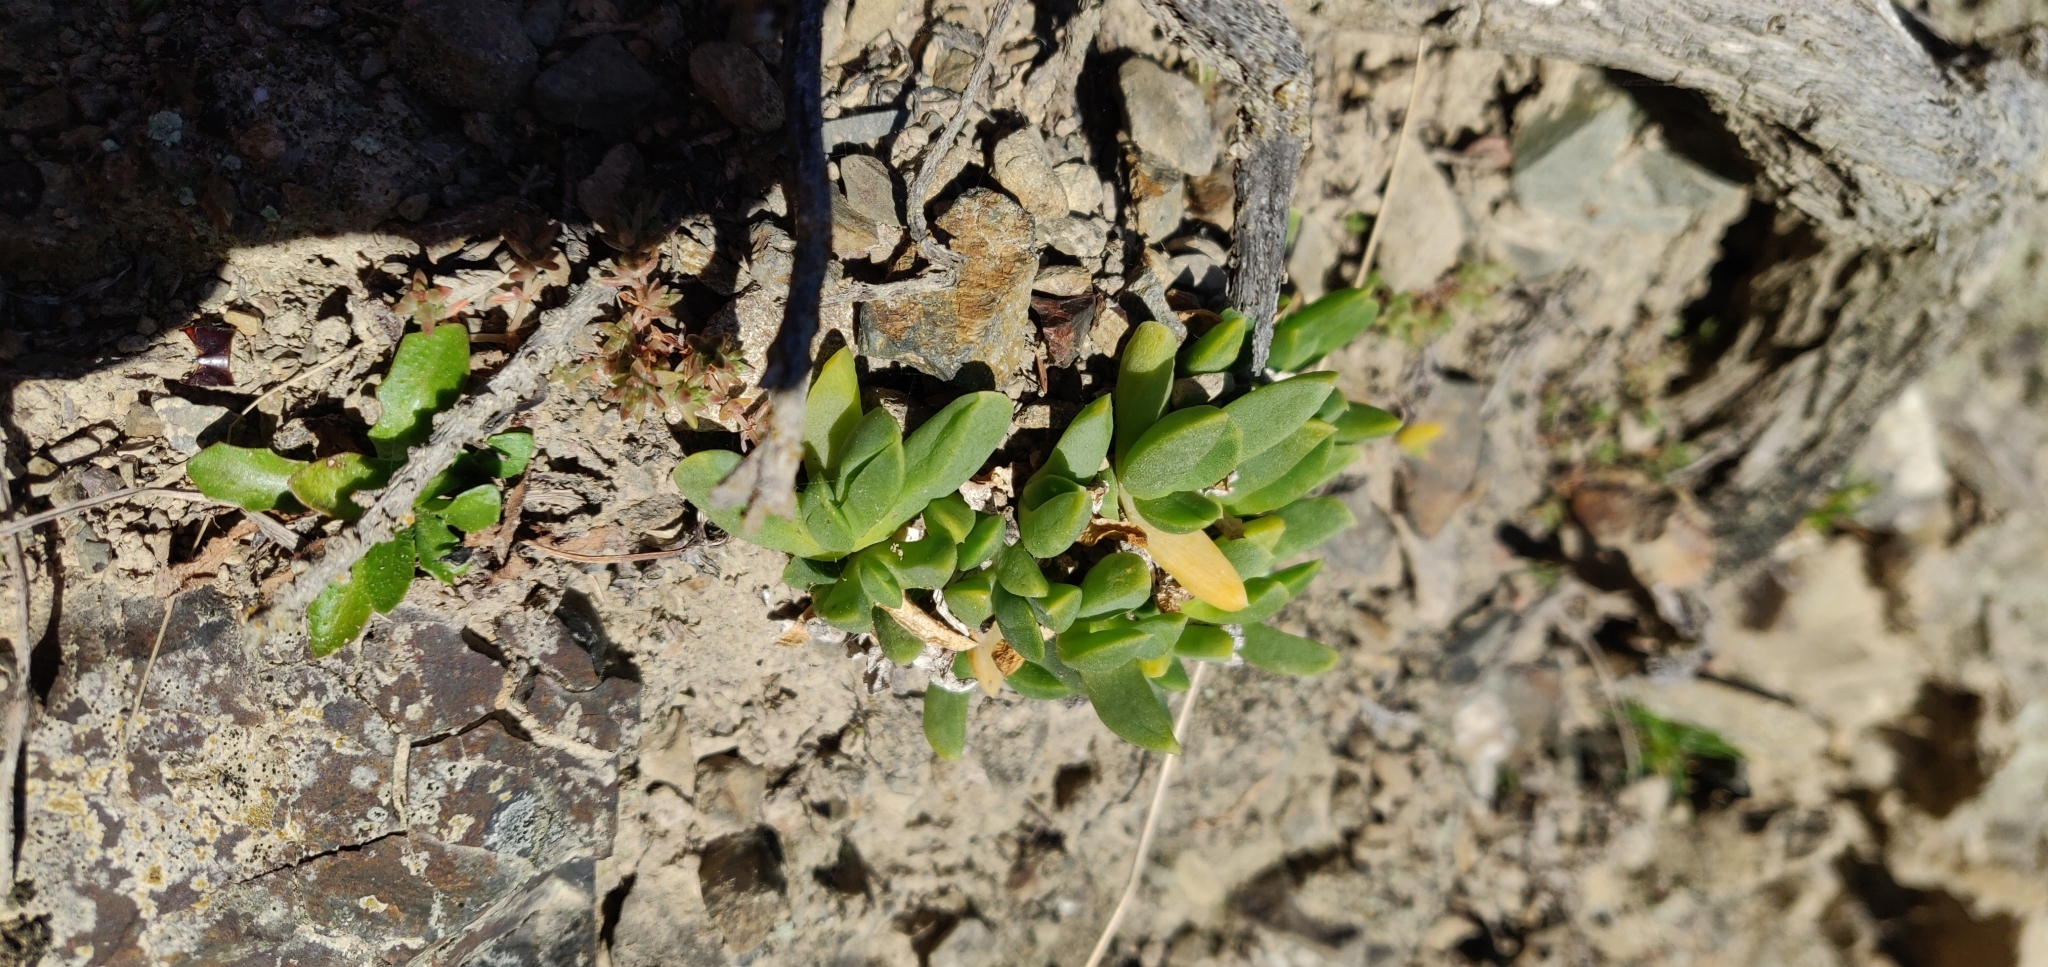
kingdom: Plantae
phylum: Tracheophyta
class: Magnoliopsida
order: Caryophyllales
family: Aizoaceae
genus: Disphyma
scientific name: Disphyma australe
